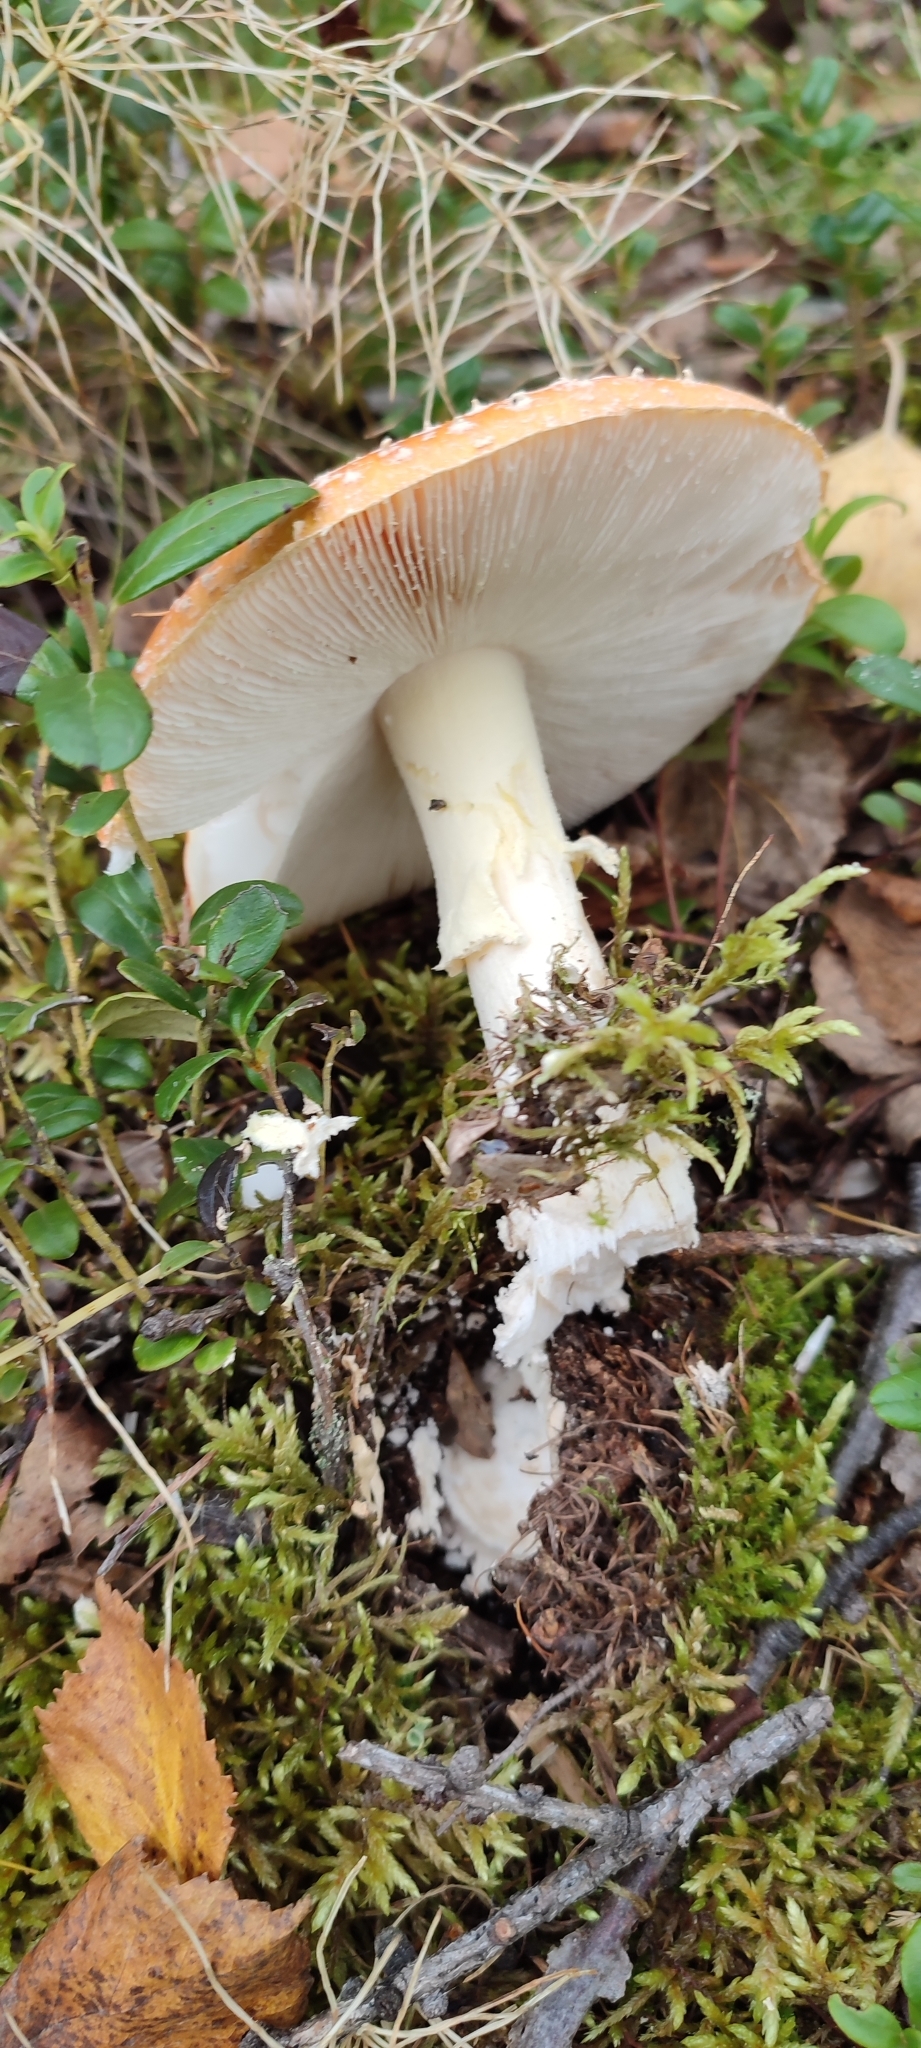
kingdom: Fungi
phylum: Basidiomycota
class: Agaricomycetes
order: Agaricales
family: Amanitaceae
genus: Amanita
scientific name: Amanita muscaria
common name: Fly agaric
